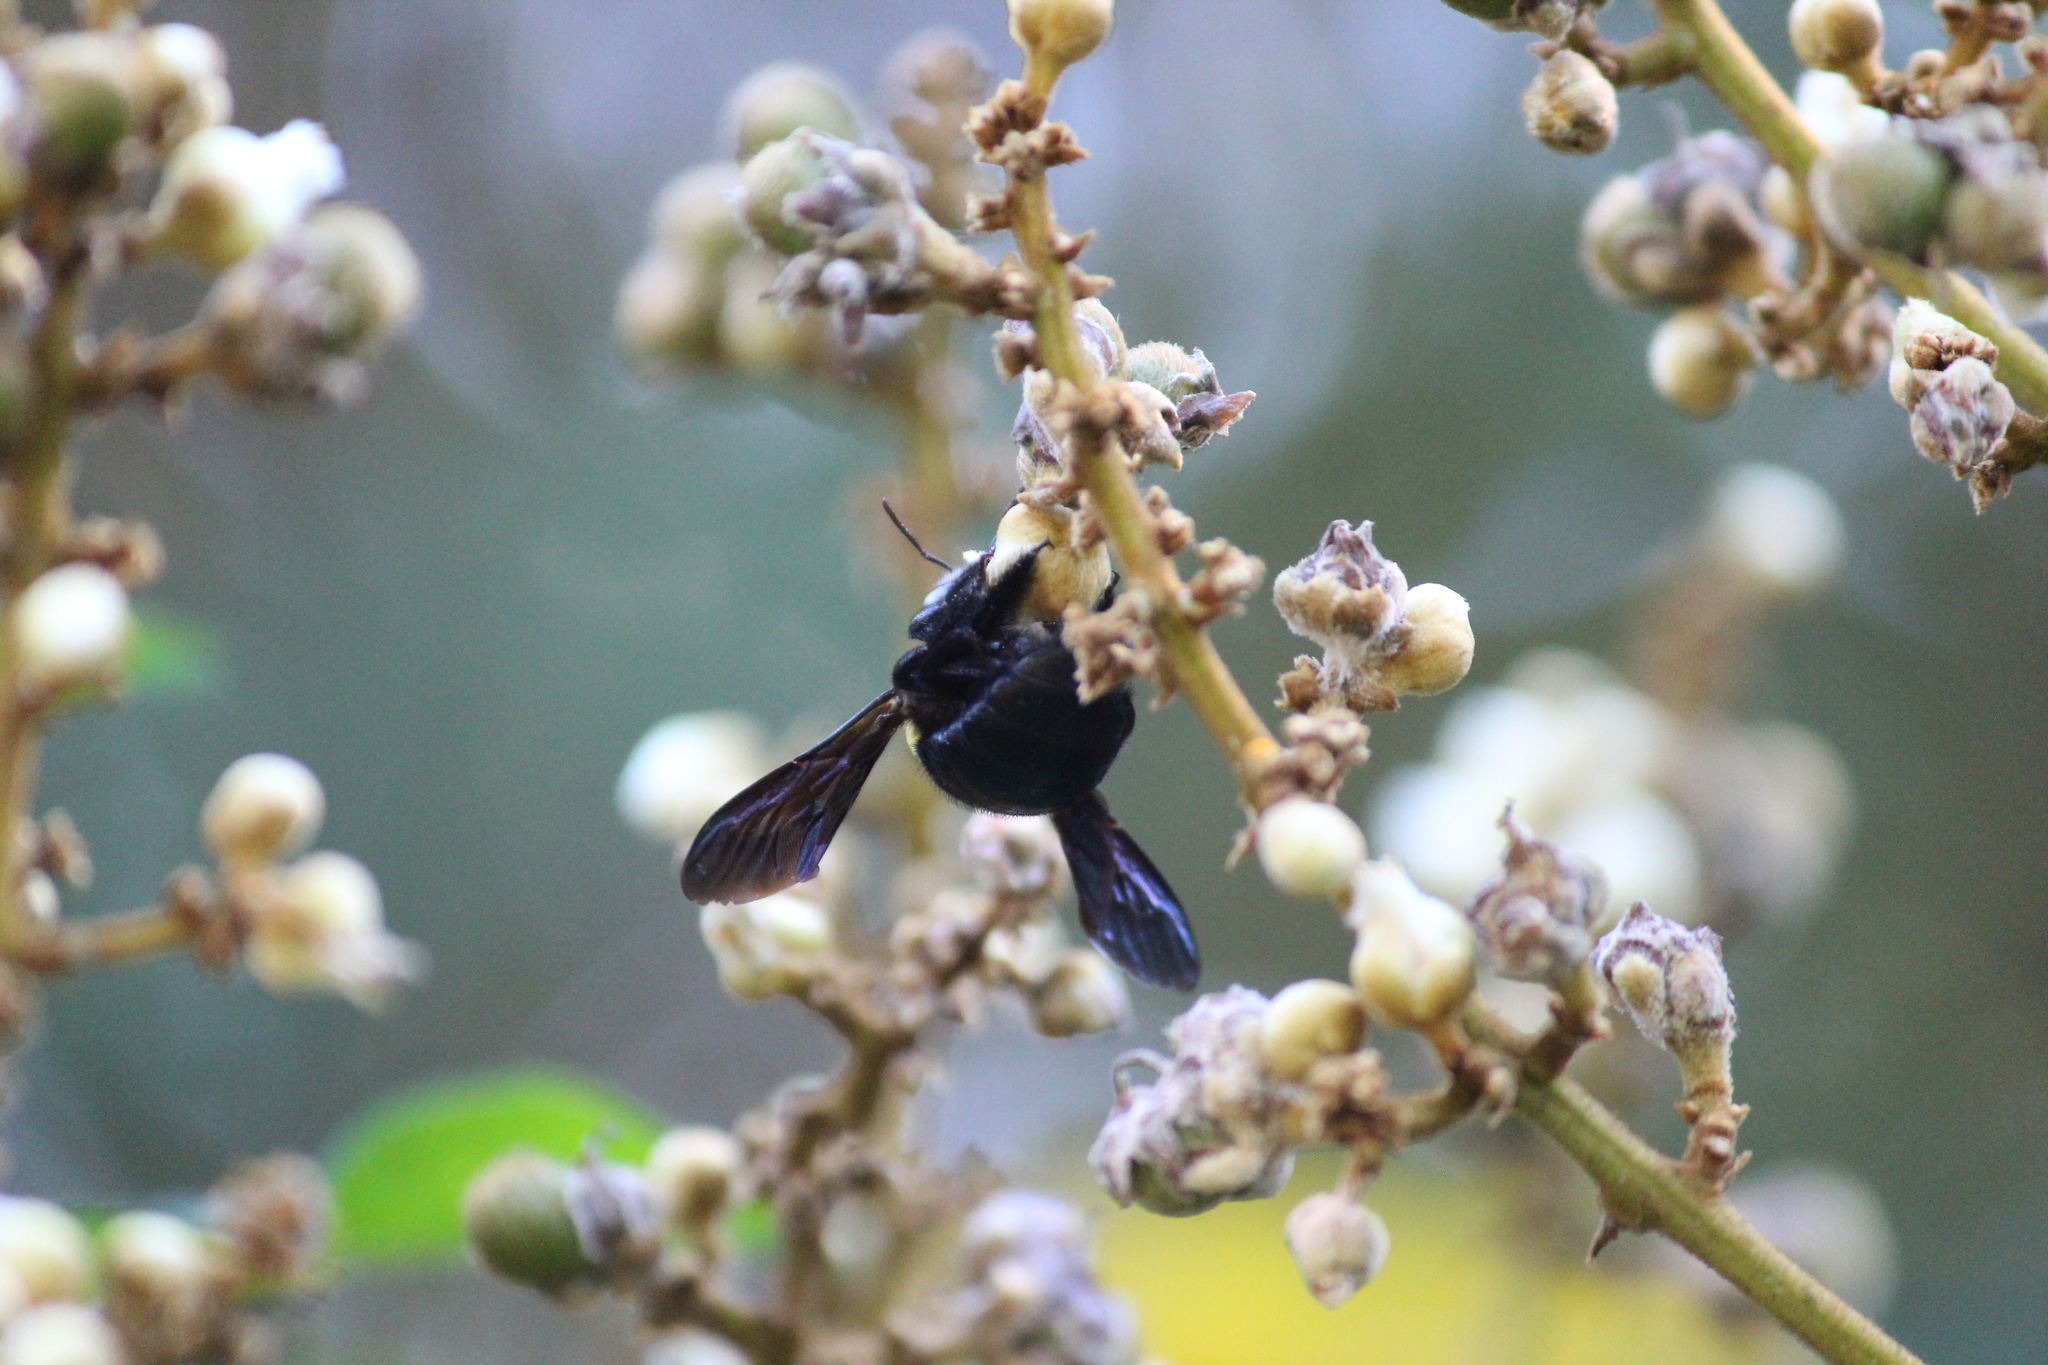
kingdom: Animalia
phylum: Arthropoda
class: Insecta
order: Hymenoptera
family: Apidae
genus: Xylocopa
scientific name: Xylocopa flavicollis
